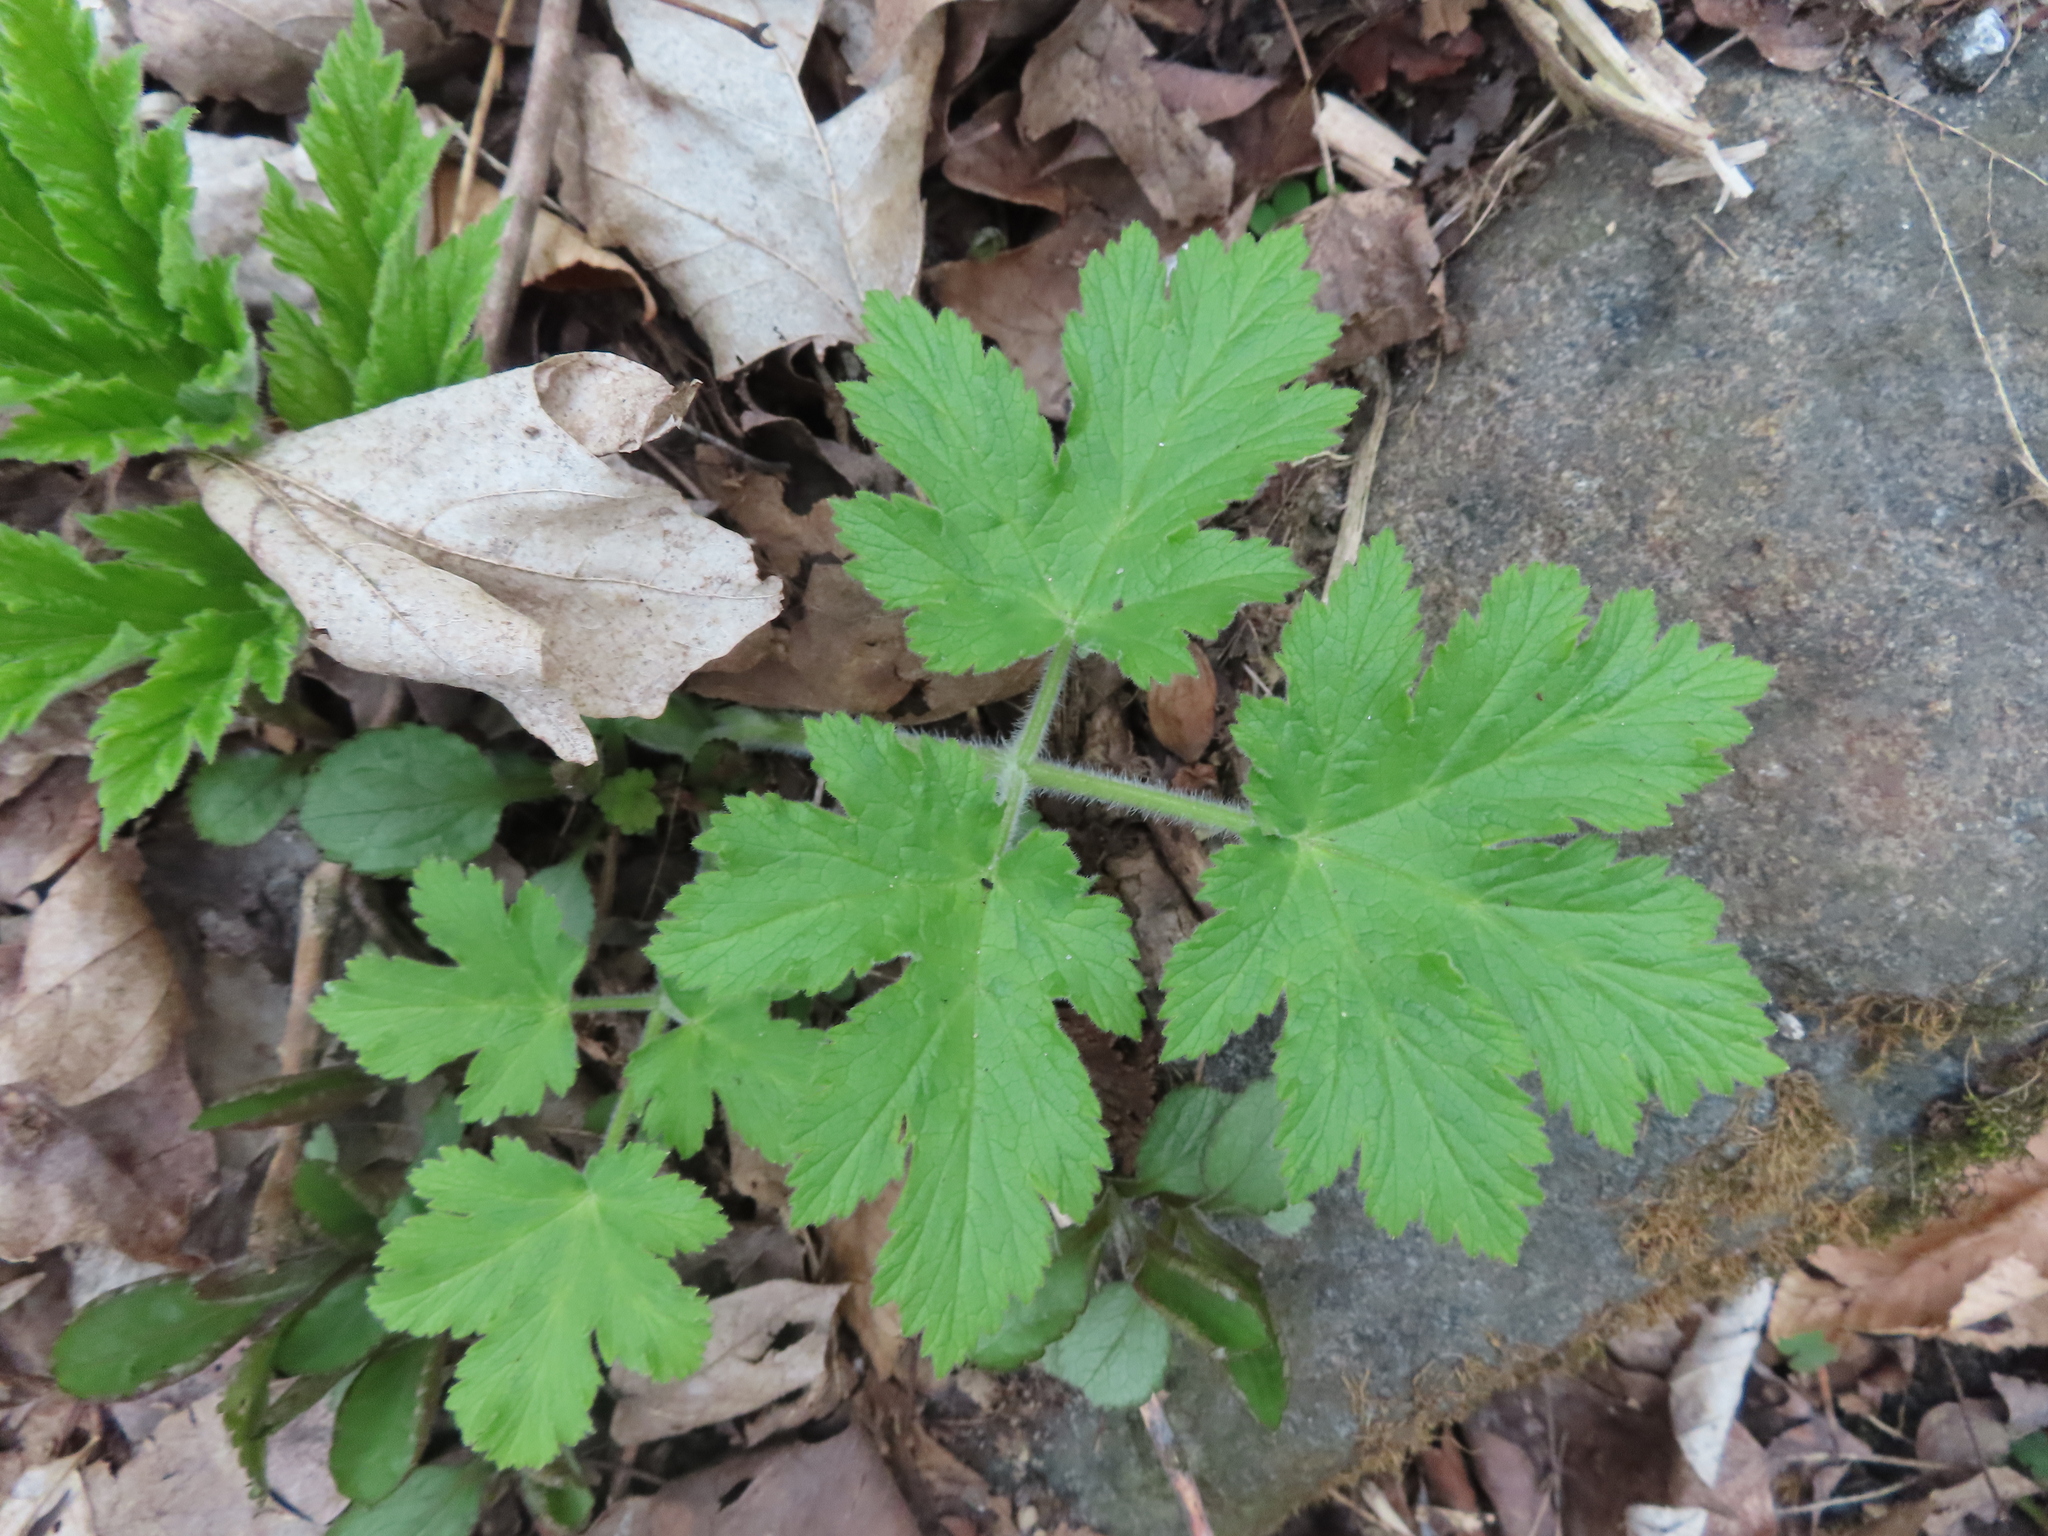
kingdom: Plantae
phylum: Tracheophyta
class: Magnoliopsida
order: Apiales
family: Apiaceae
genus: Heracleum
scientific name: Heracleum maximum
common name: American cow parsnip
